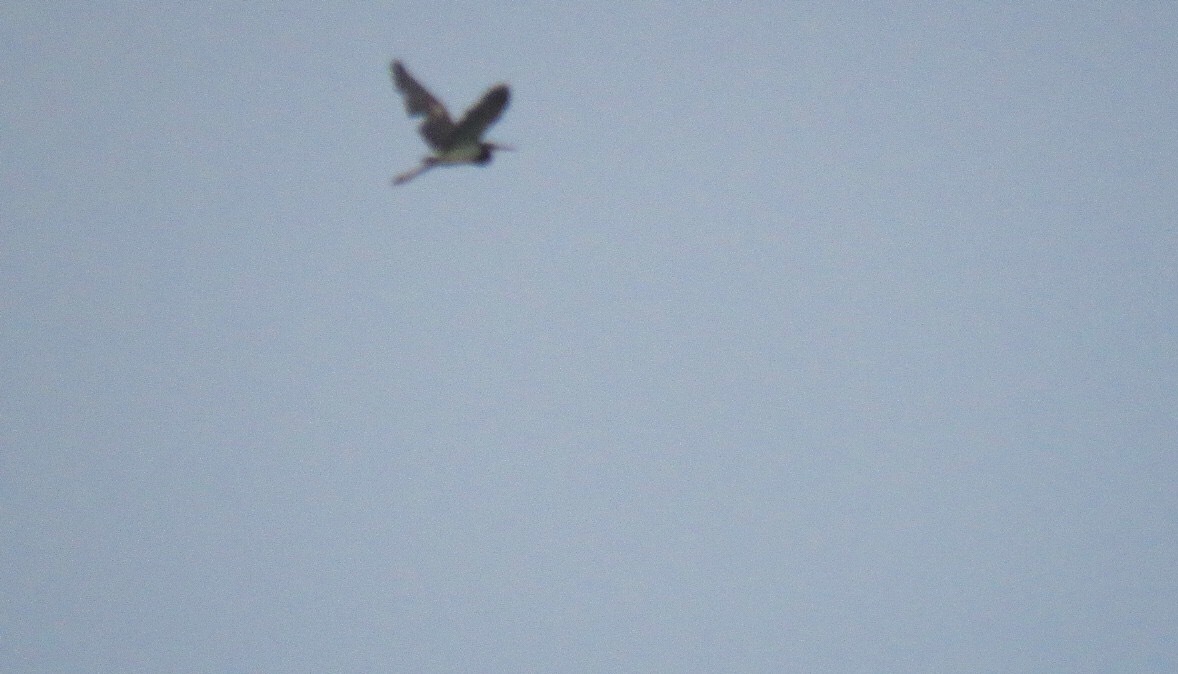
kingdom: Animalia
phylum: Chordata
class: Aves
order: Pelecaniformes
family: Ardeidae
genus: Egretta
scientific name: Egretta tricolor
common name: Tricolored heron
